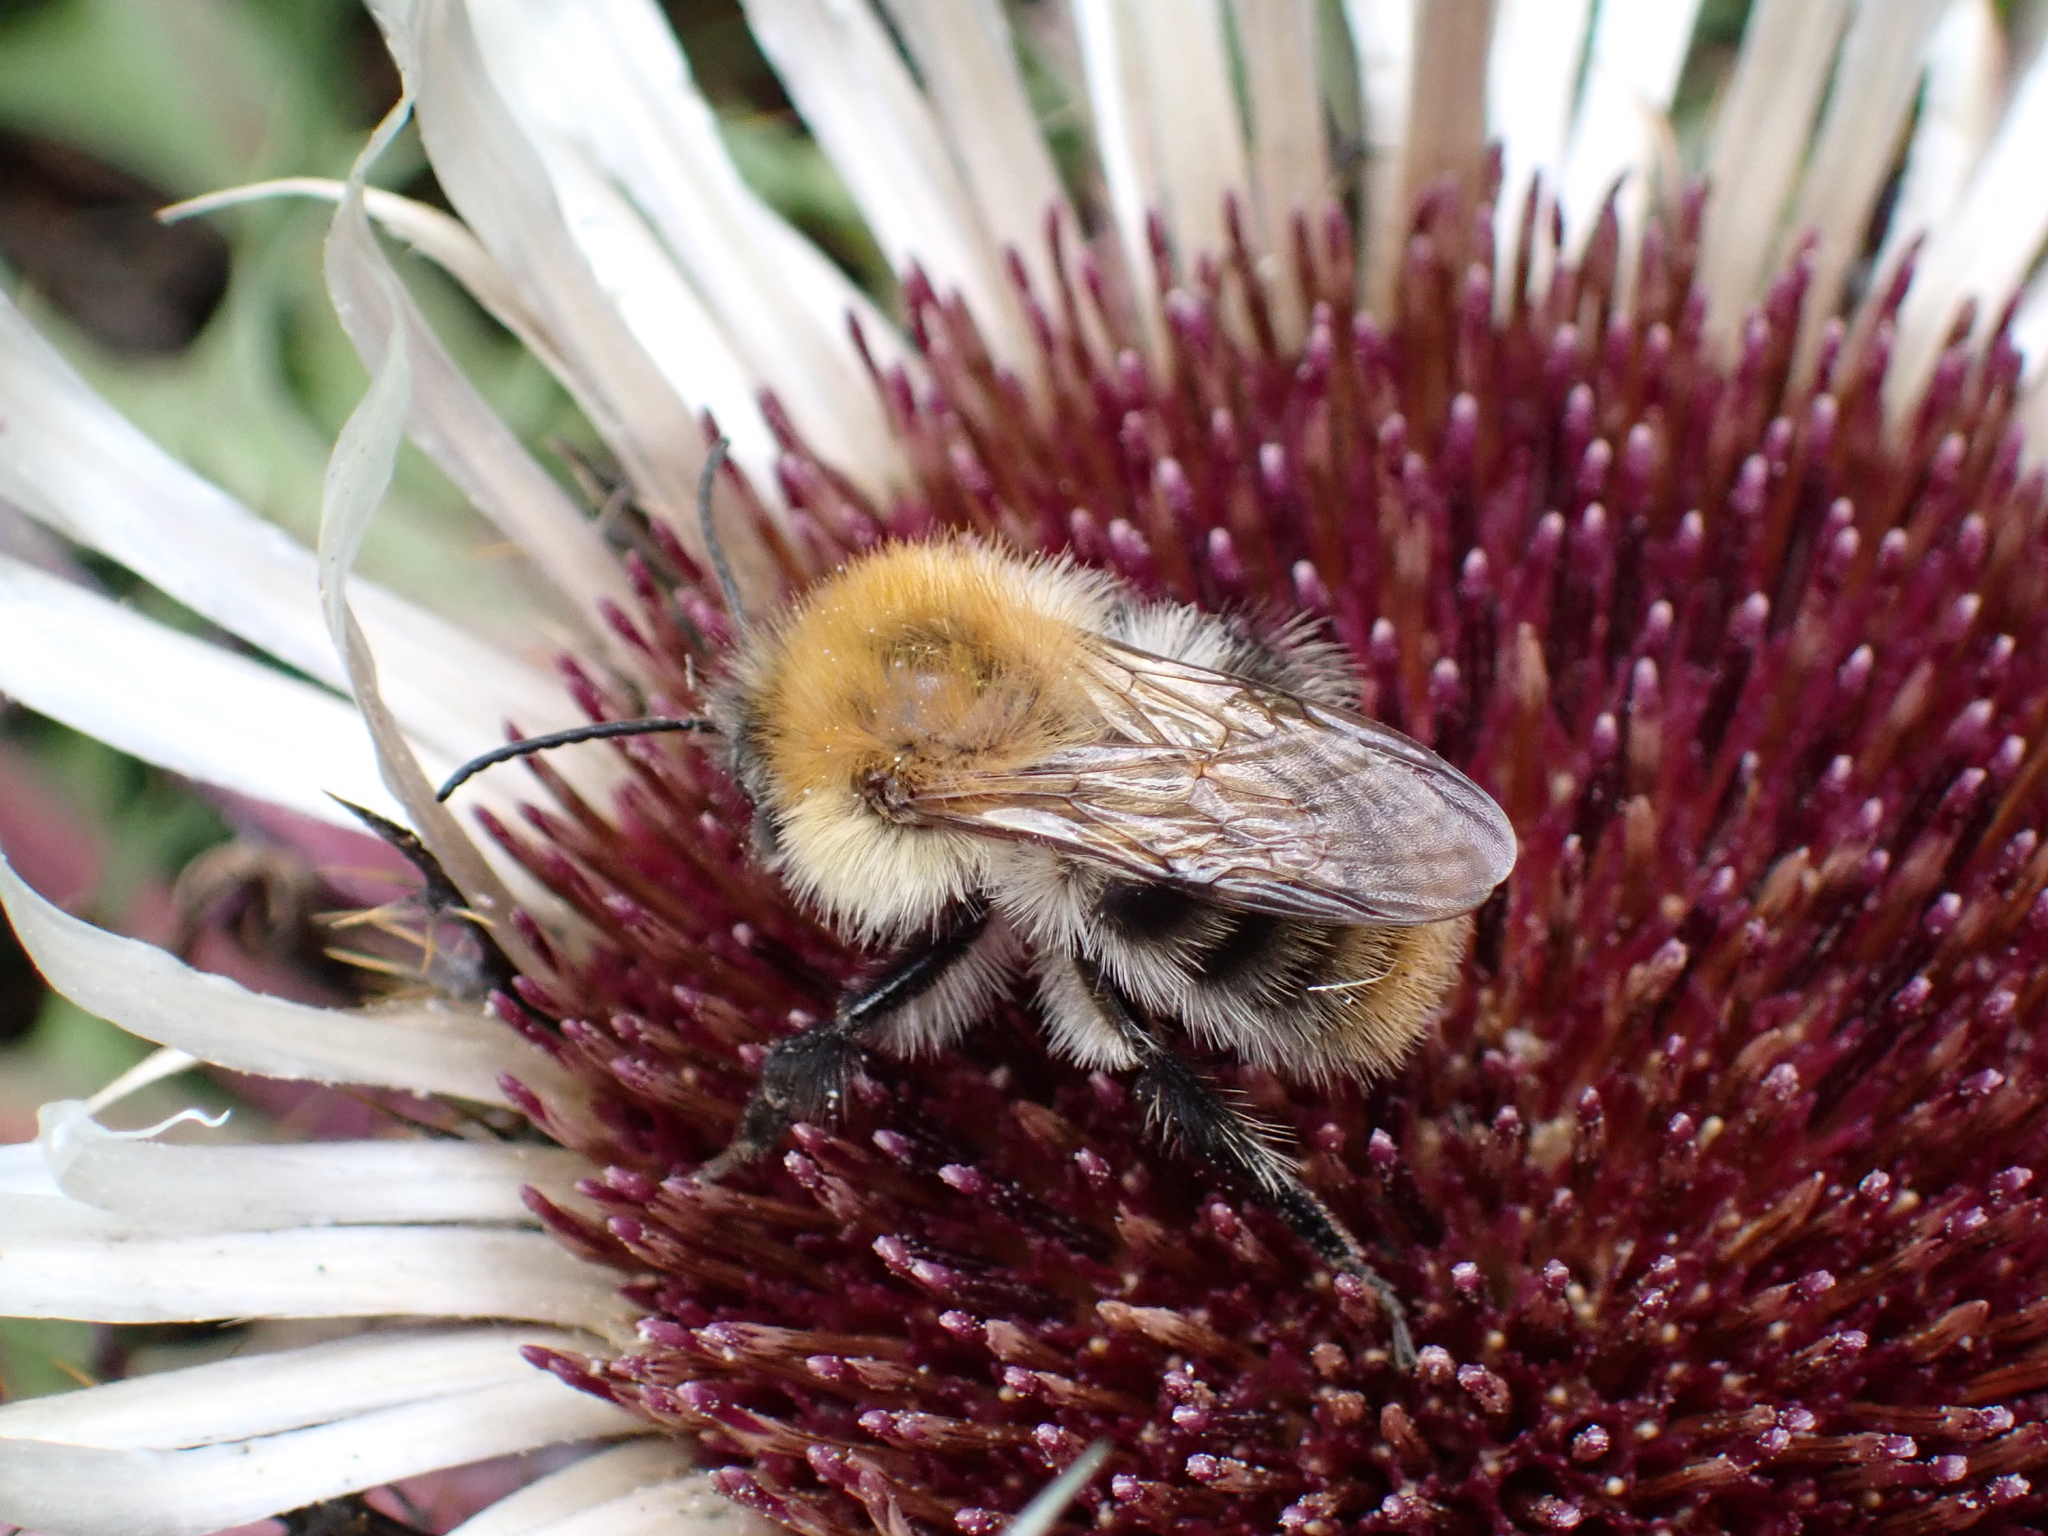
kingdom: Plantae
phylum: Tracheophyta
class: Magnoliopsida
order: Asterales
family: Asteraceae
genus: Carlina
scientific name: Carlina acaulis
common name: Stemless carline thistle
